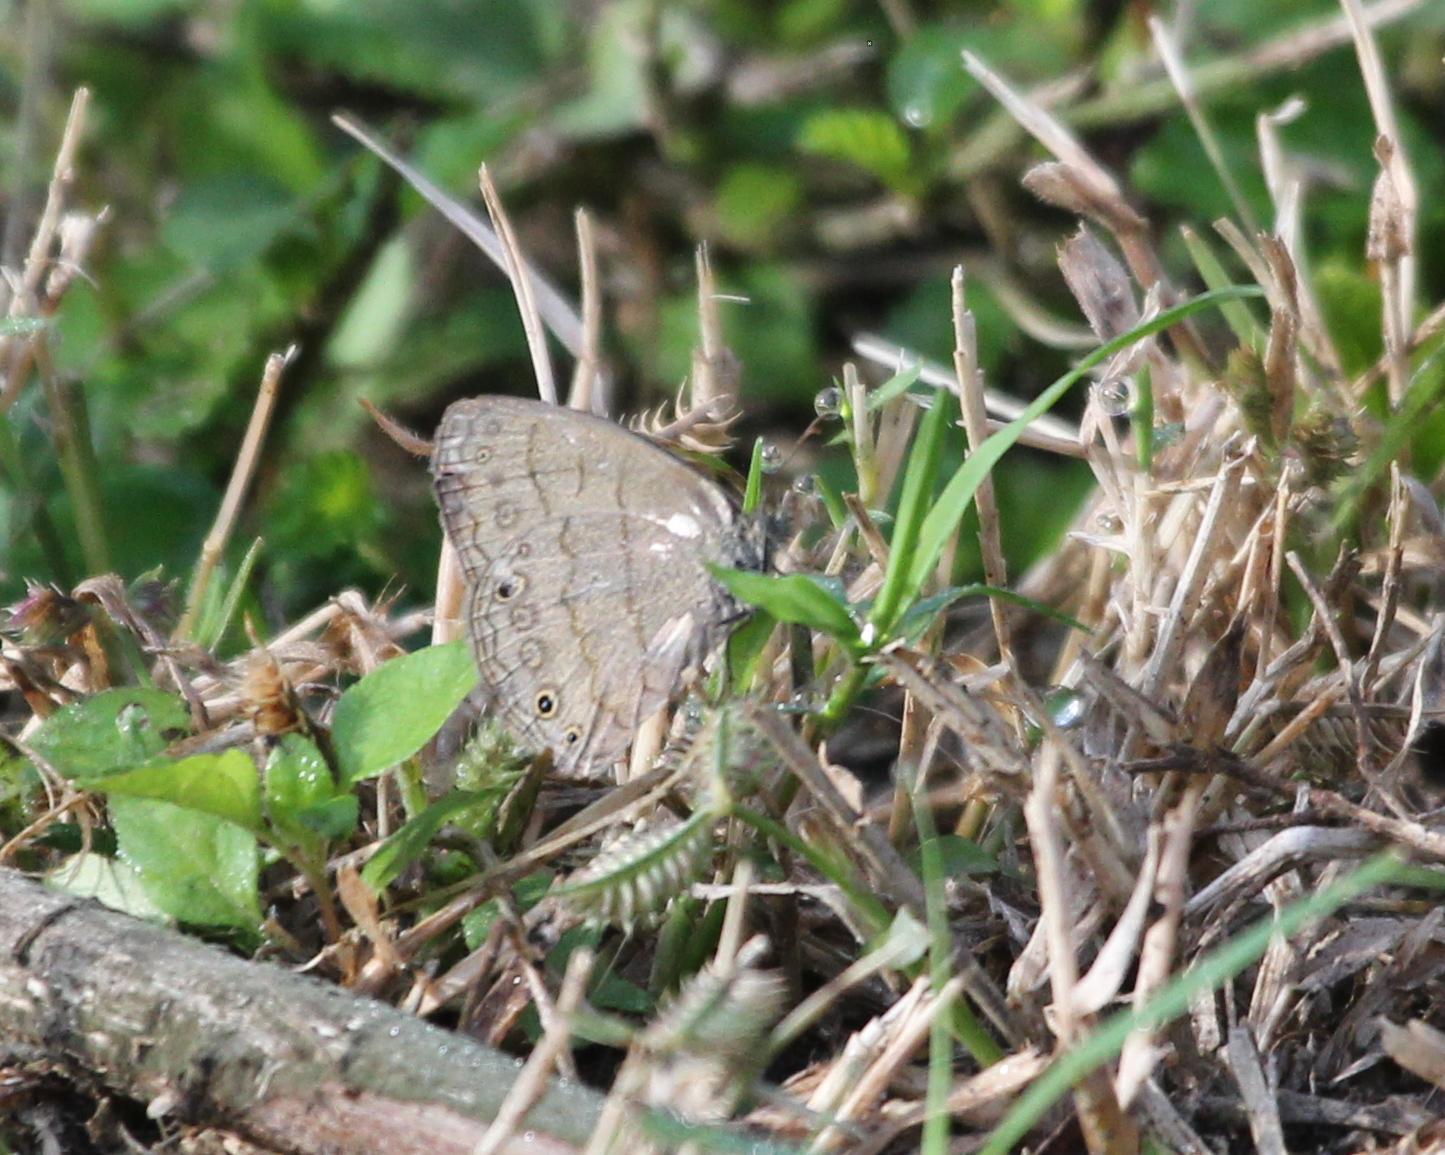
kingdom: Animalia
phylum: Arthropoda
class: Insecta
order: Lepidoptera
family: Nymphalidae
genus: Hermeuptychia
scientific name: Hermeuptychia hermybius
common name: South texas satyr
